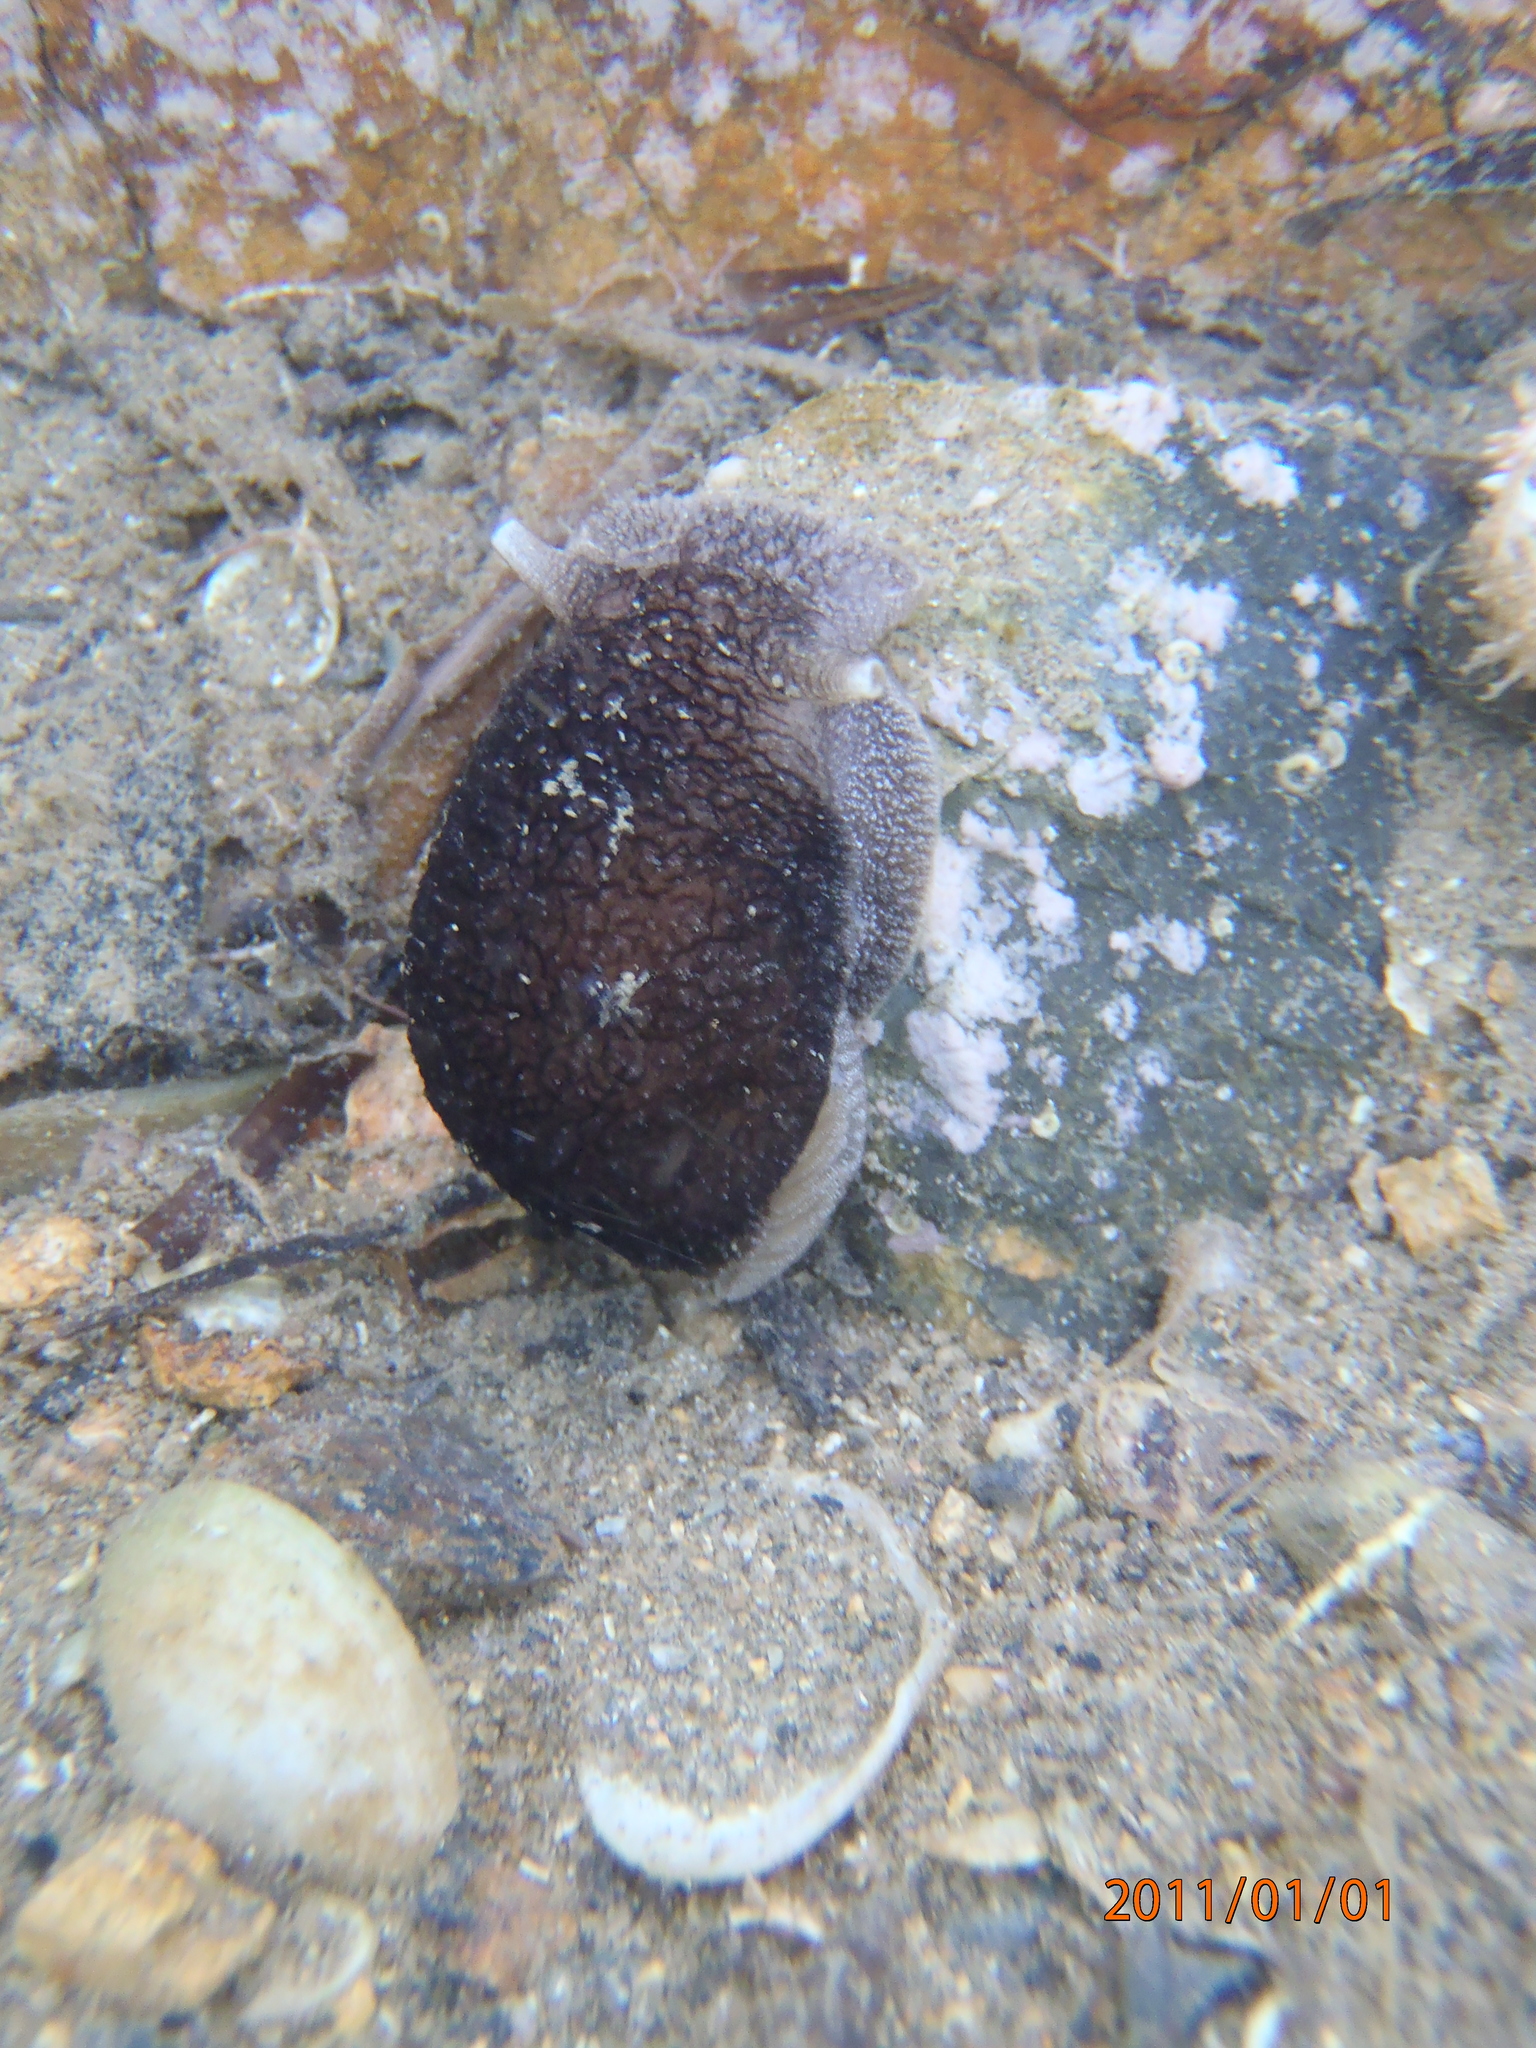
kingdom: Animalia
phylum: Mollusca
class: Gastropoda
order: Pleurobranchida
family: Pleurobranchaeidae
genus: Pleurobranchaea
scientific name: Pleurobranchaea maculata
